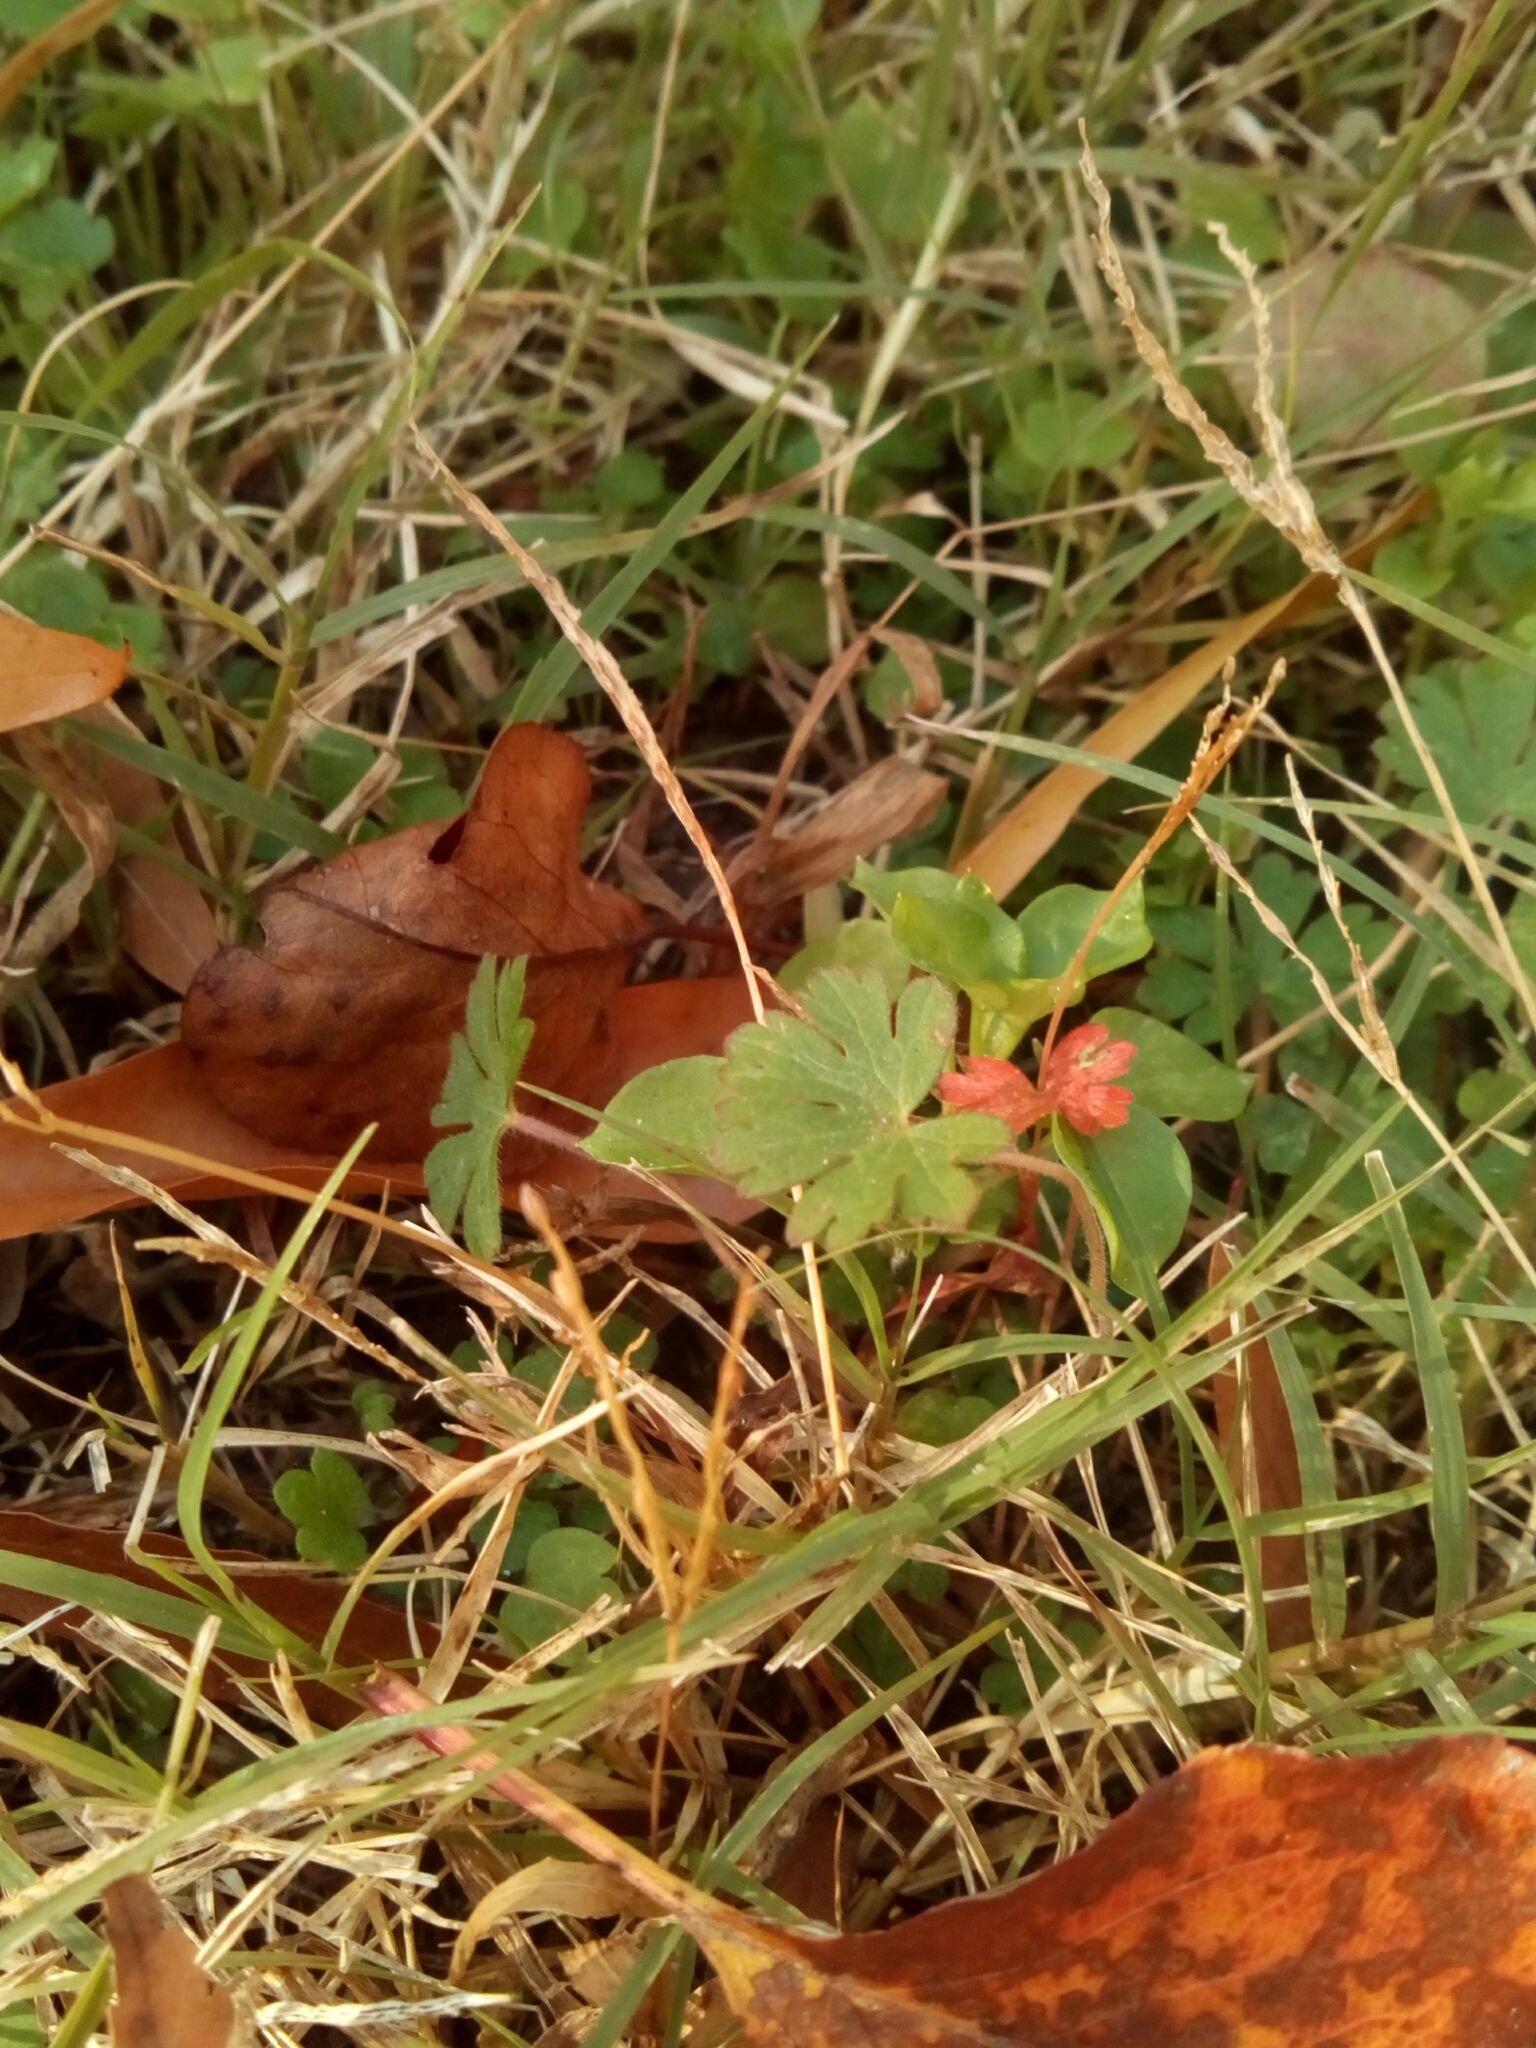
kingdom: Plantae
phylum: Tracheophyta
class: Magnoliopsida
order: Geraniales
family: Geraniaceae
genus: Geranium
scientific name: Geranium carolinianum
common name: Carolina crane's-bill
